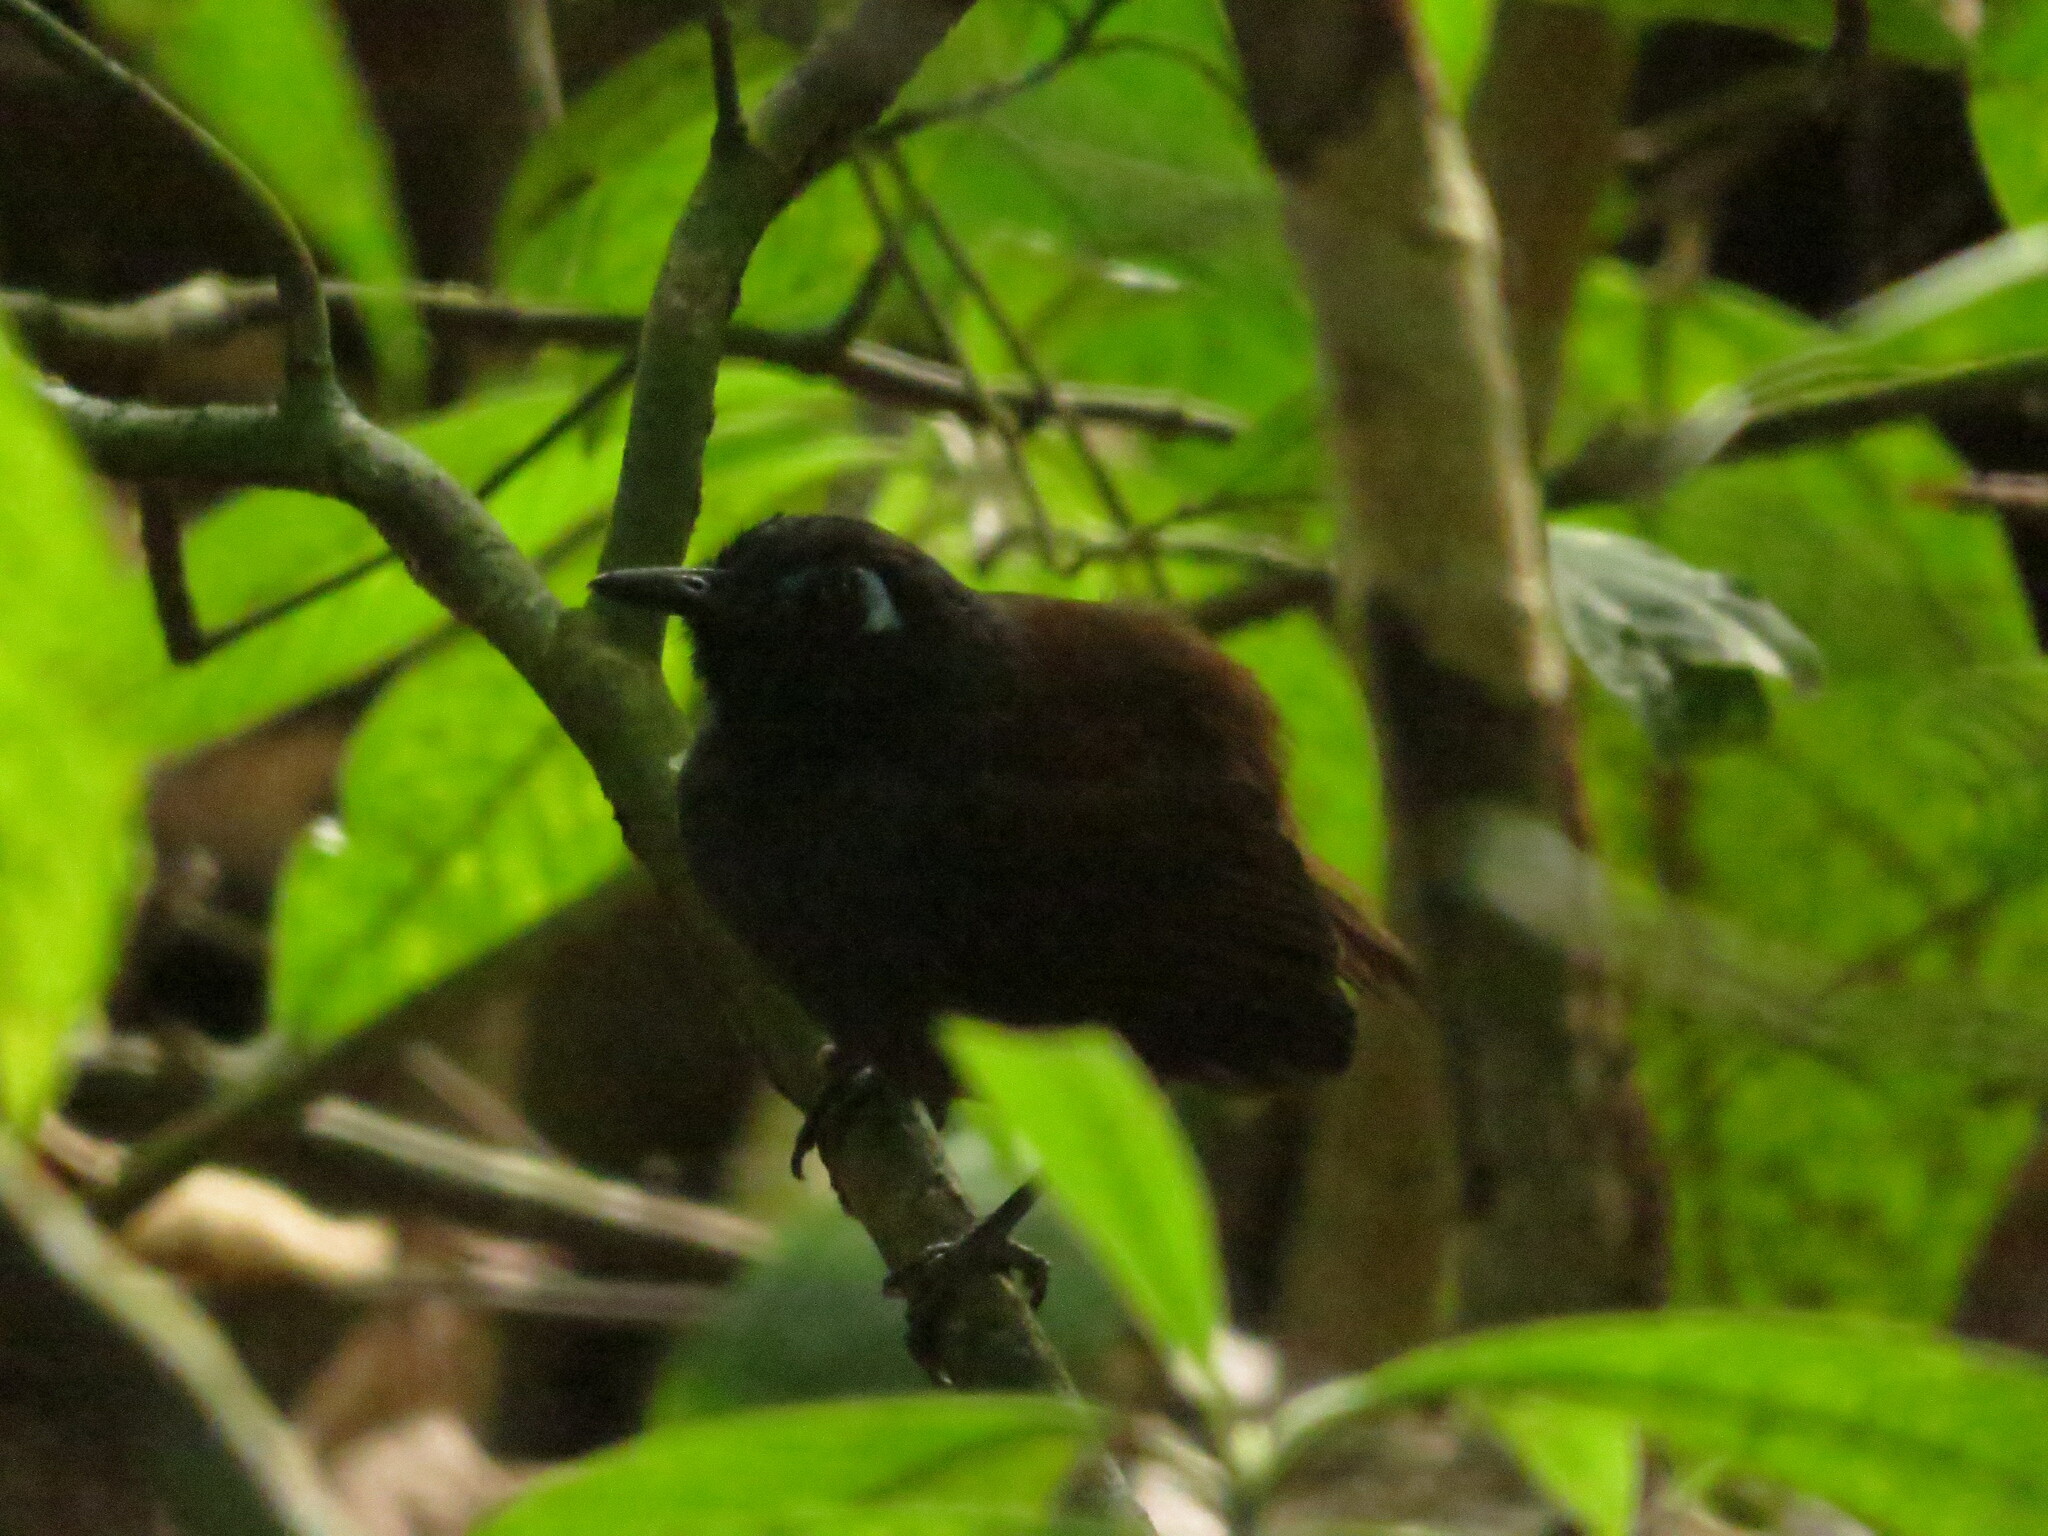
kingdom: Animalia
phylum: Chordata
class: Aves
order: Passeriformes
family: Thamnophilidae
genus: Myrmeciza
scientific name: Myrmeciza exsul
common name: Chestnut-backed antbird
